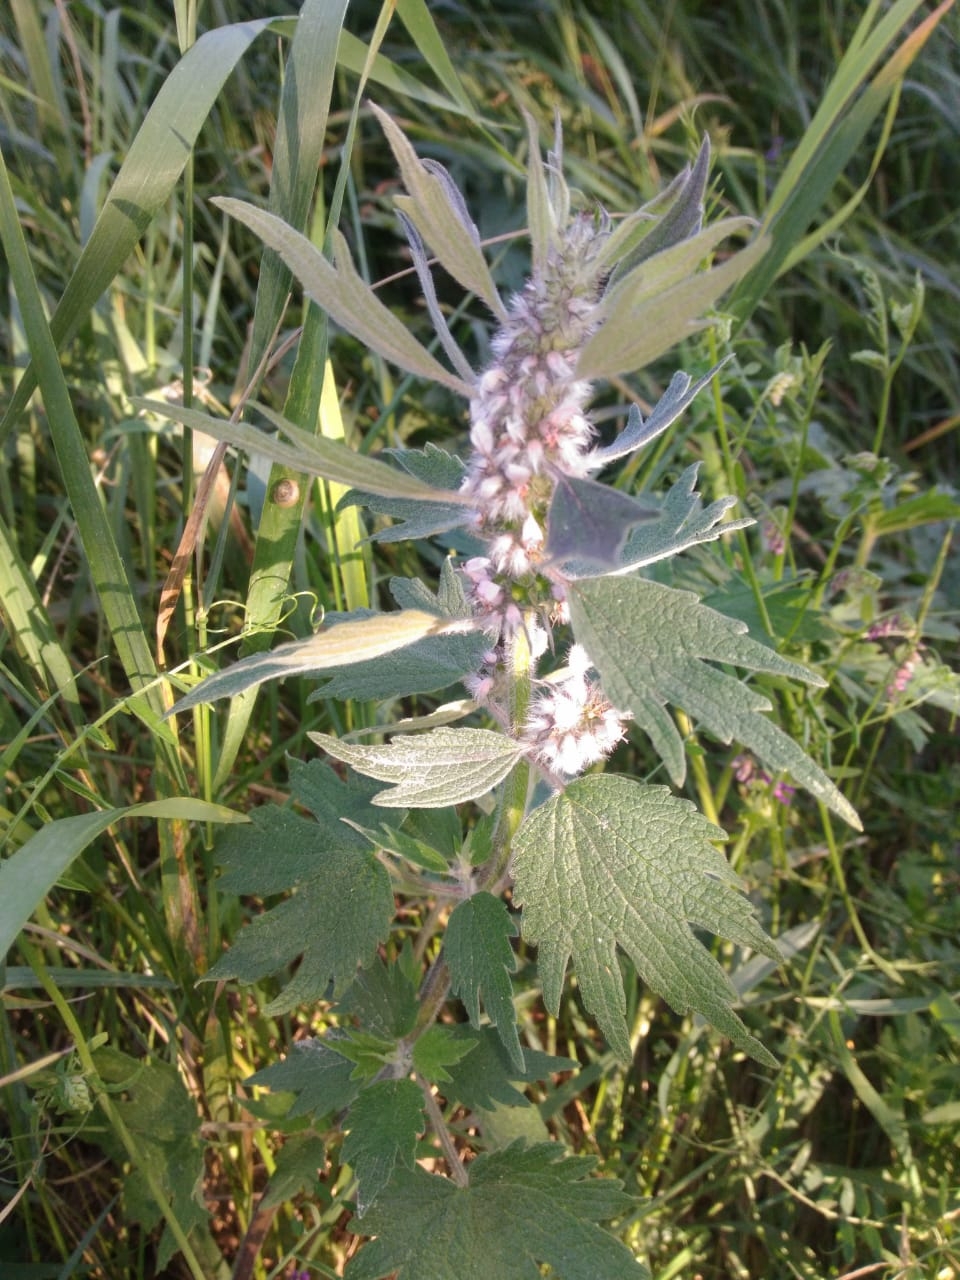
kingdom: Plantae
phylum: Tracheophyta
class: Magnoliopsida
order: Lamiales
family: Lamiaceae
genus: Leonurus
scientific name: Leonurus quinquelobatus
